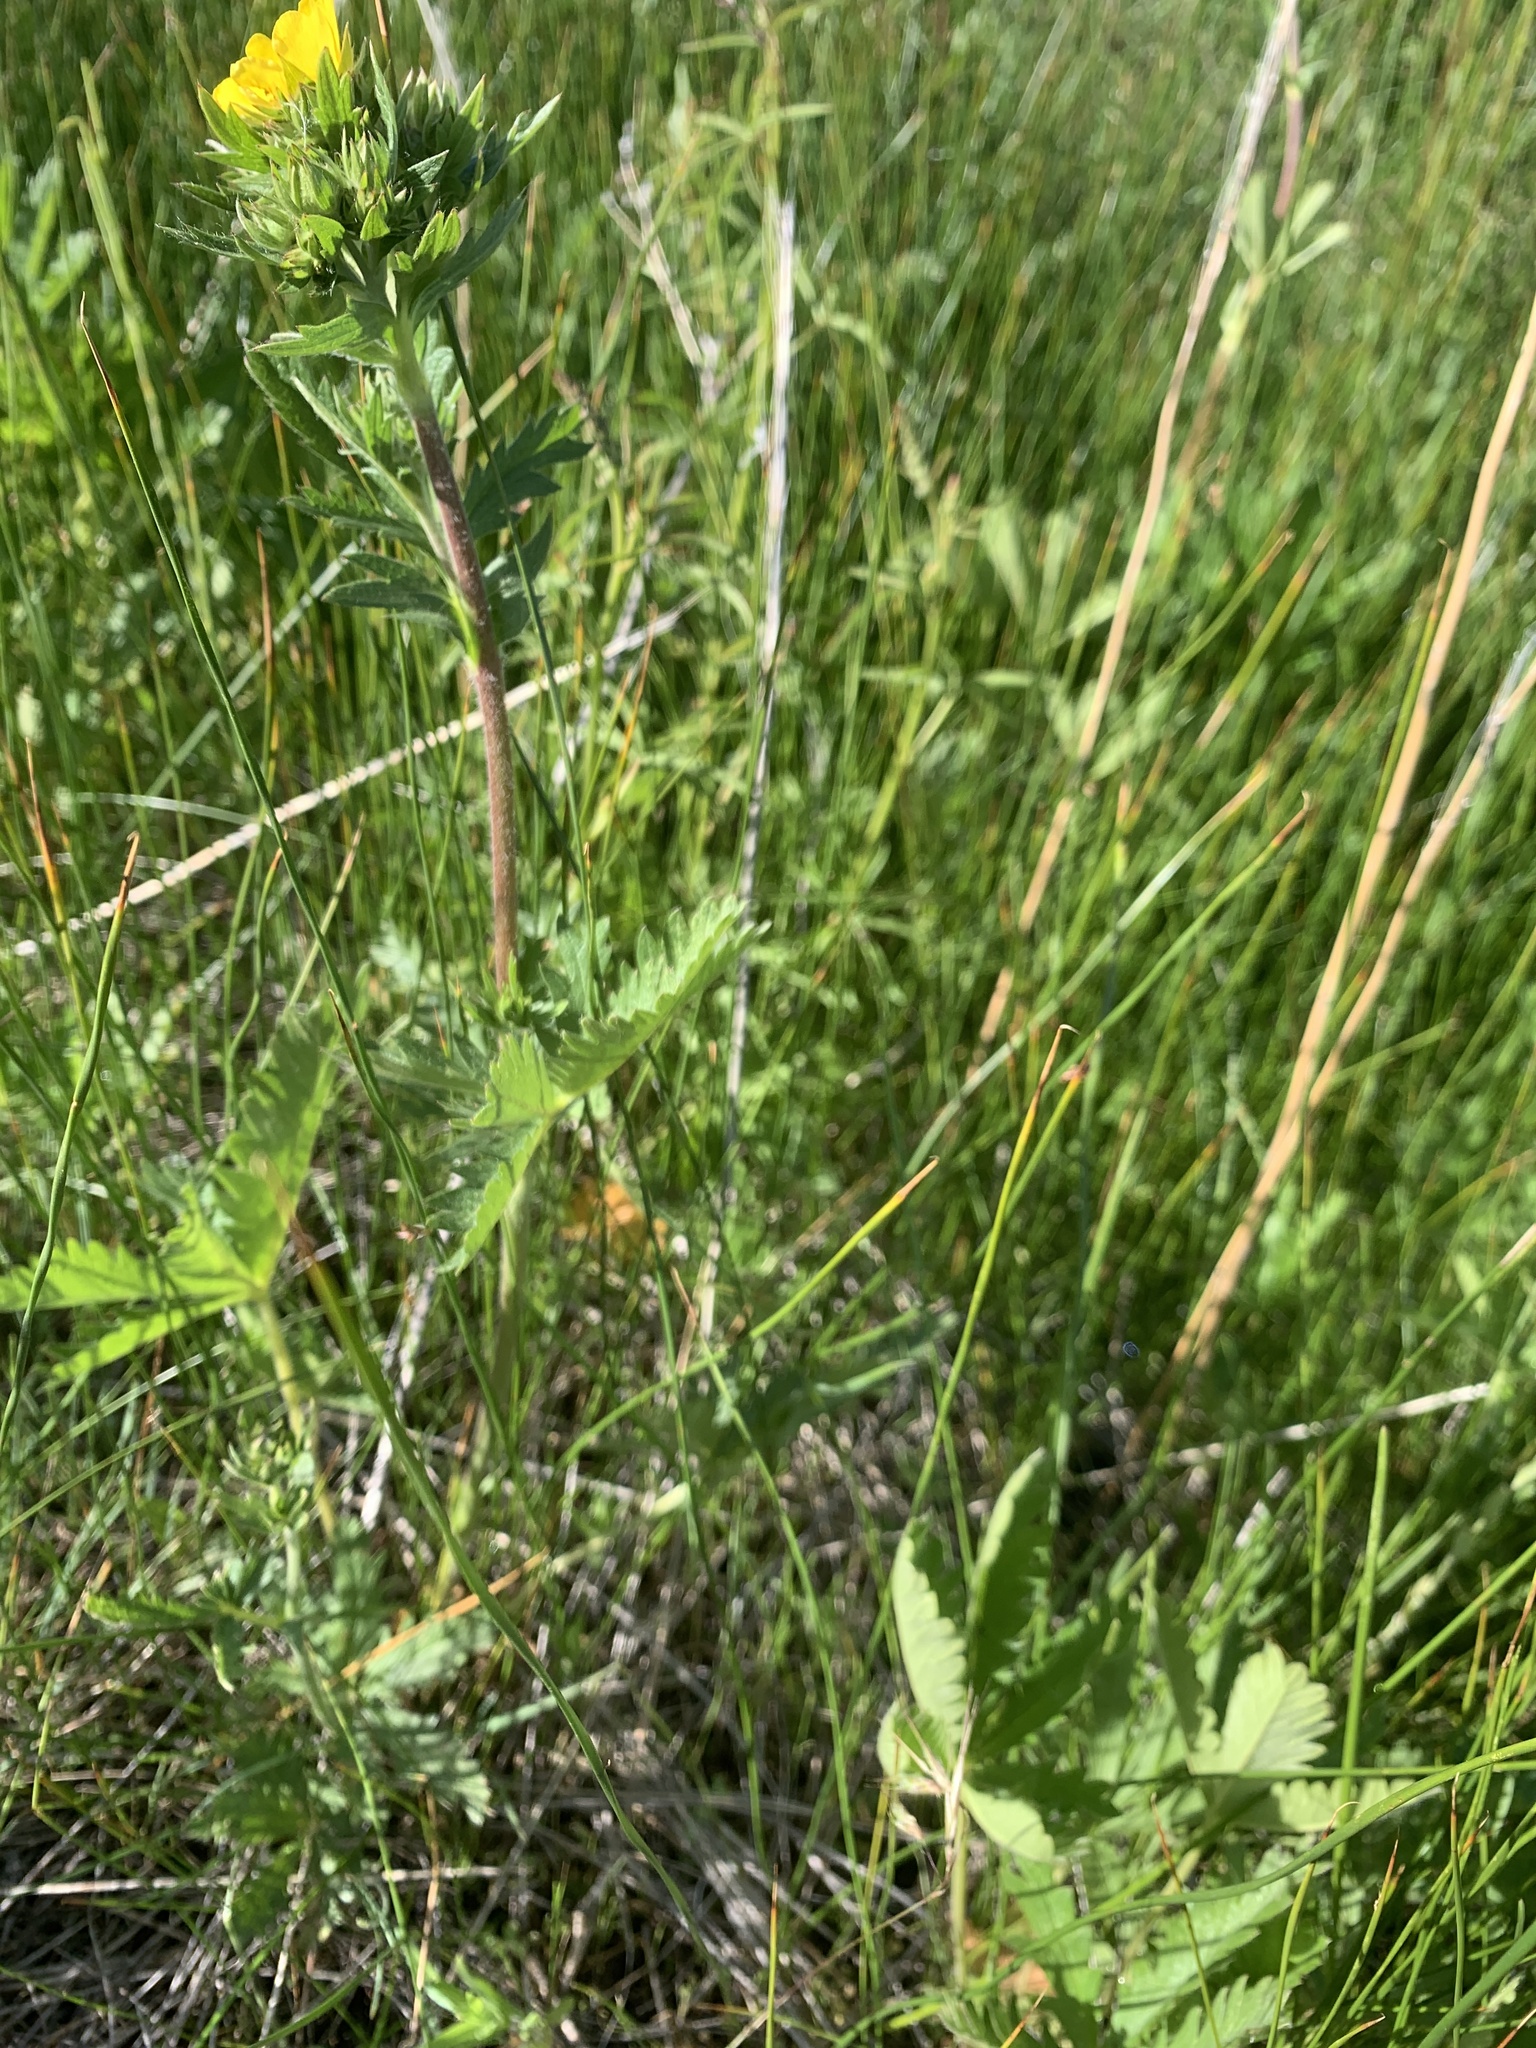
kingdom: Plantae
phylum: Tracheophyta
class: Magnoliopsida
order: Rosales
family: Rosaceae
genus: Potentilla
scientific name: Potentilla gracilis
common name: Graceful cinquefoil
